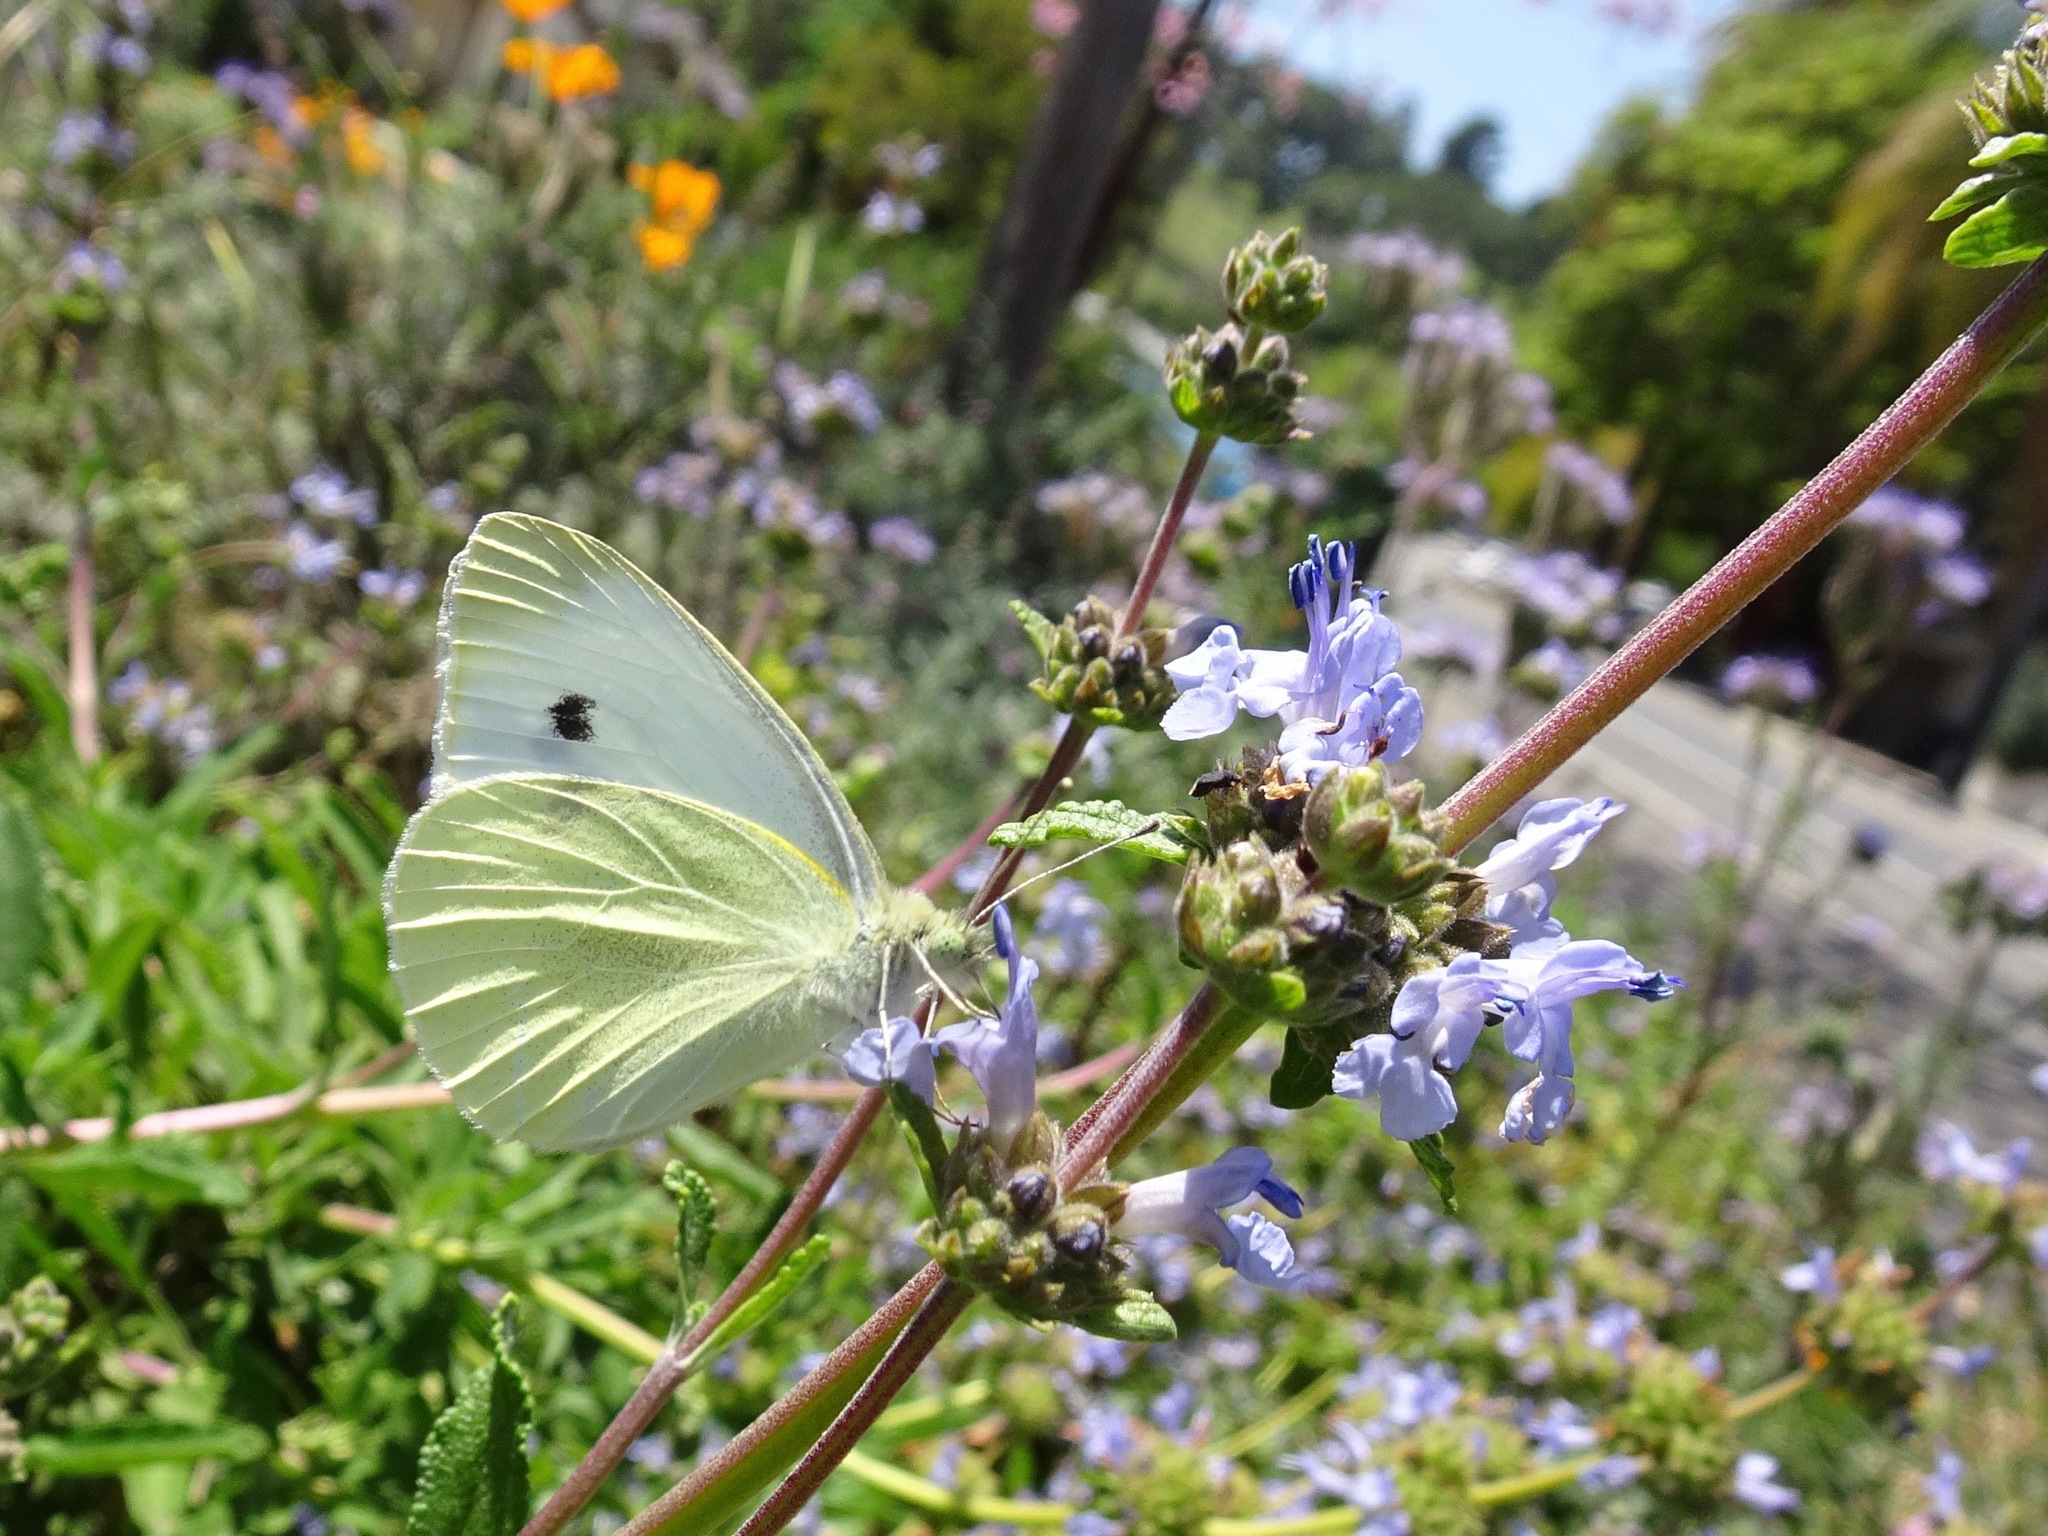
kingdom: Animalia
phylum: Arthropoda
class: Insecta
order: Lepidoptera
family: Pieridae
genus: Pieris
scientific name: Pieris rapae
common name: Small white
